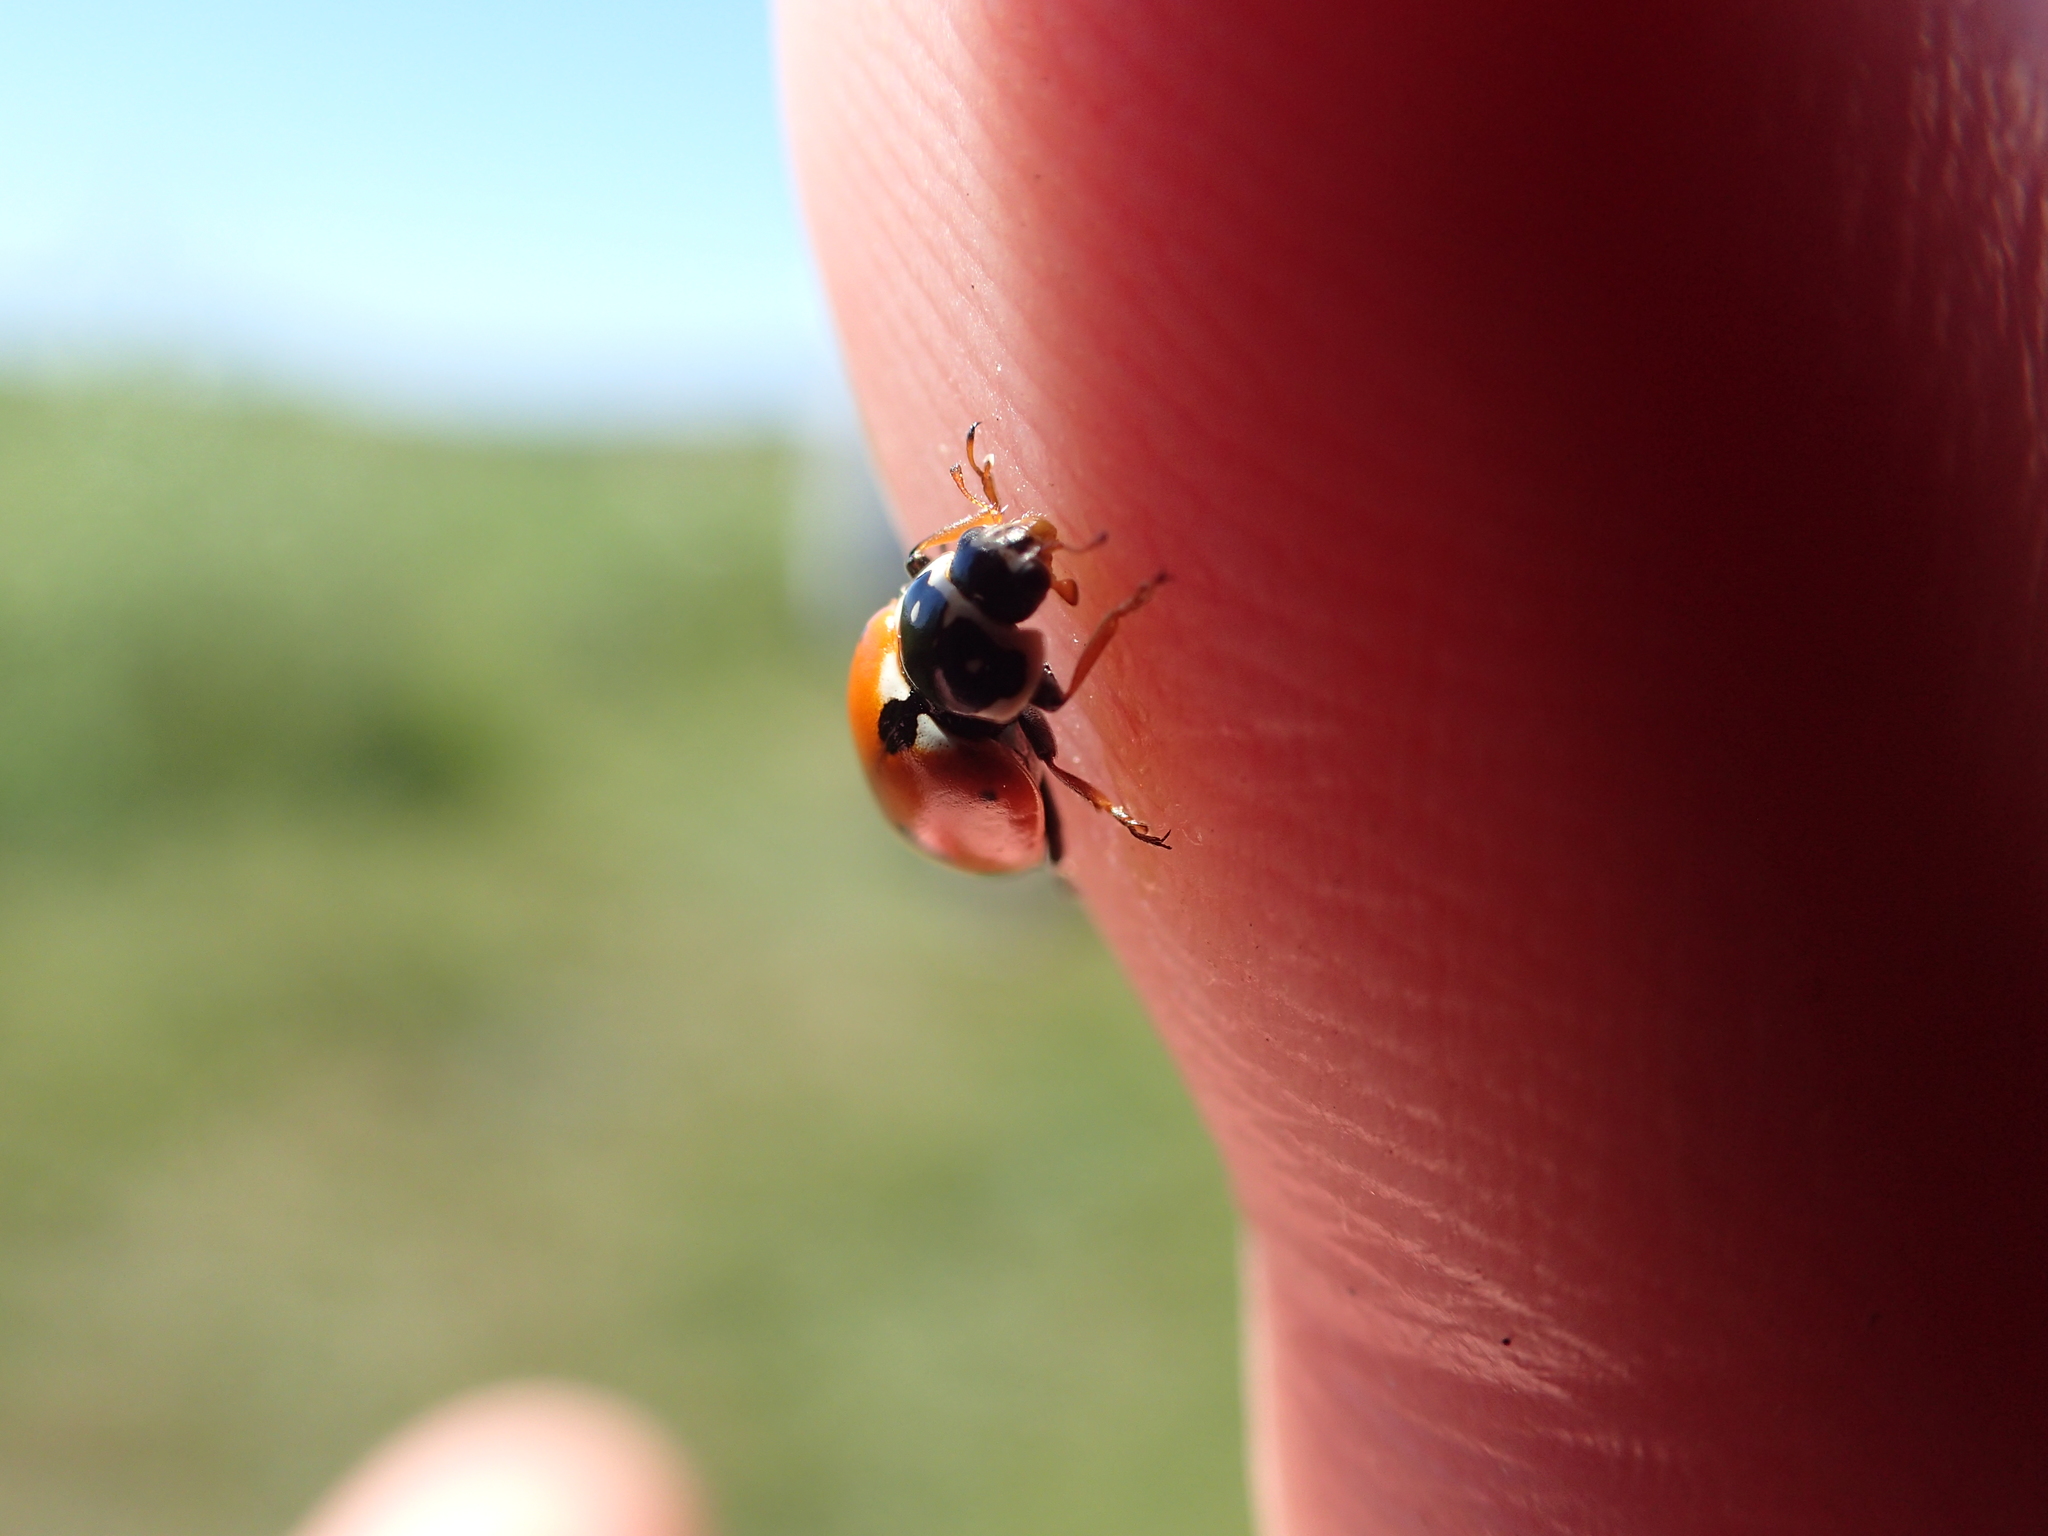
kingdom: Animalia
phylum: Arthropoda
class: Insecta
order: Coleoptera
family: Coccinellidae
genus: Hippodamia
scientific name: Hippodamia variegata
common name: Ladybird beetle
